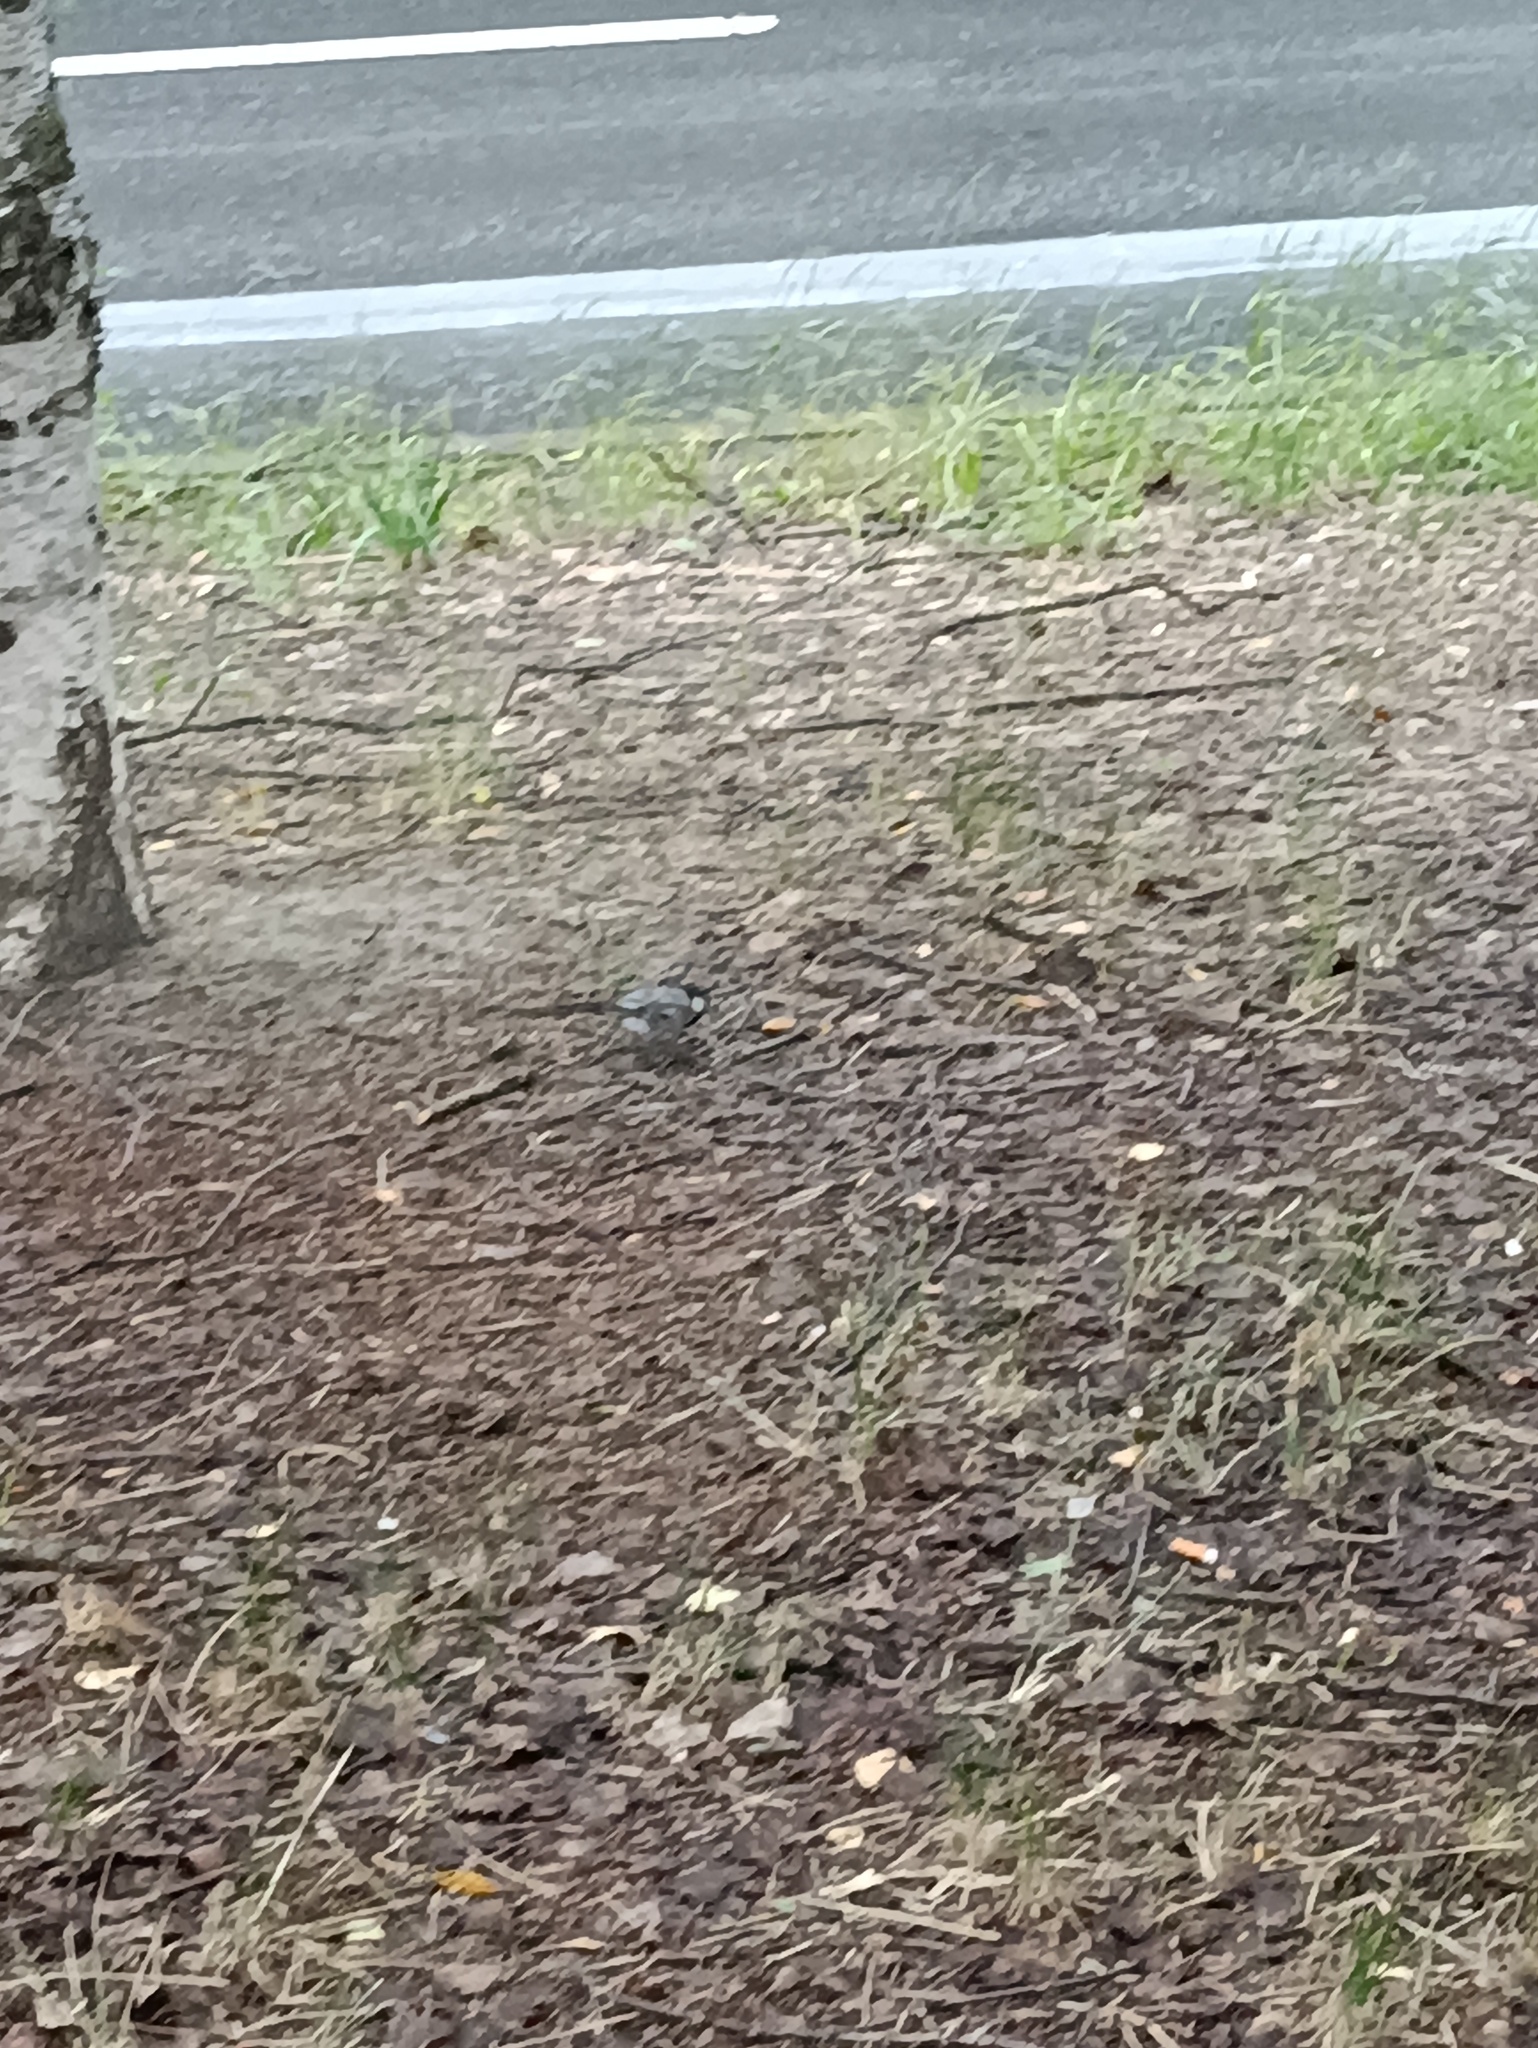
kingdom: Animalia
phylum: Chordata
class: Aves
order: Passeriformes
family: Motacillidae
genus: Motacilla
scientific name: Motacilla alba
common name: White wagtail
